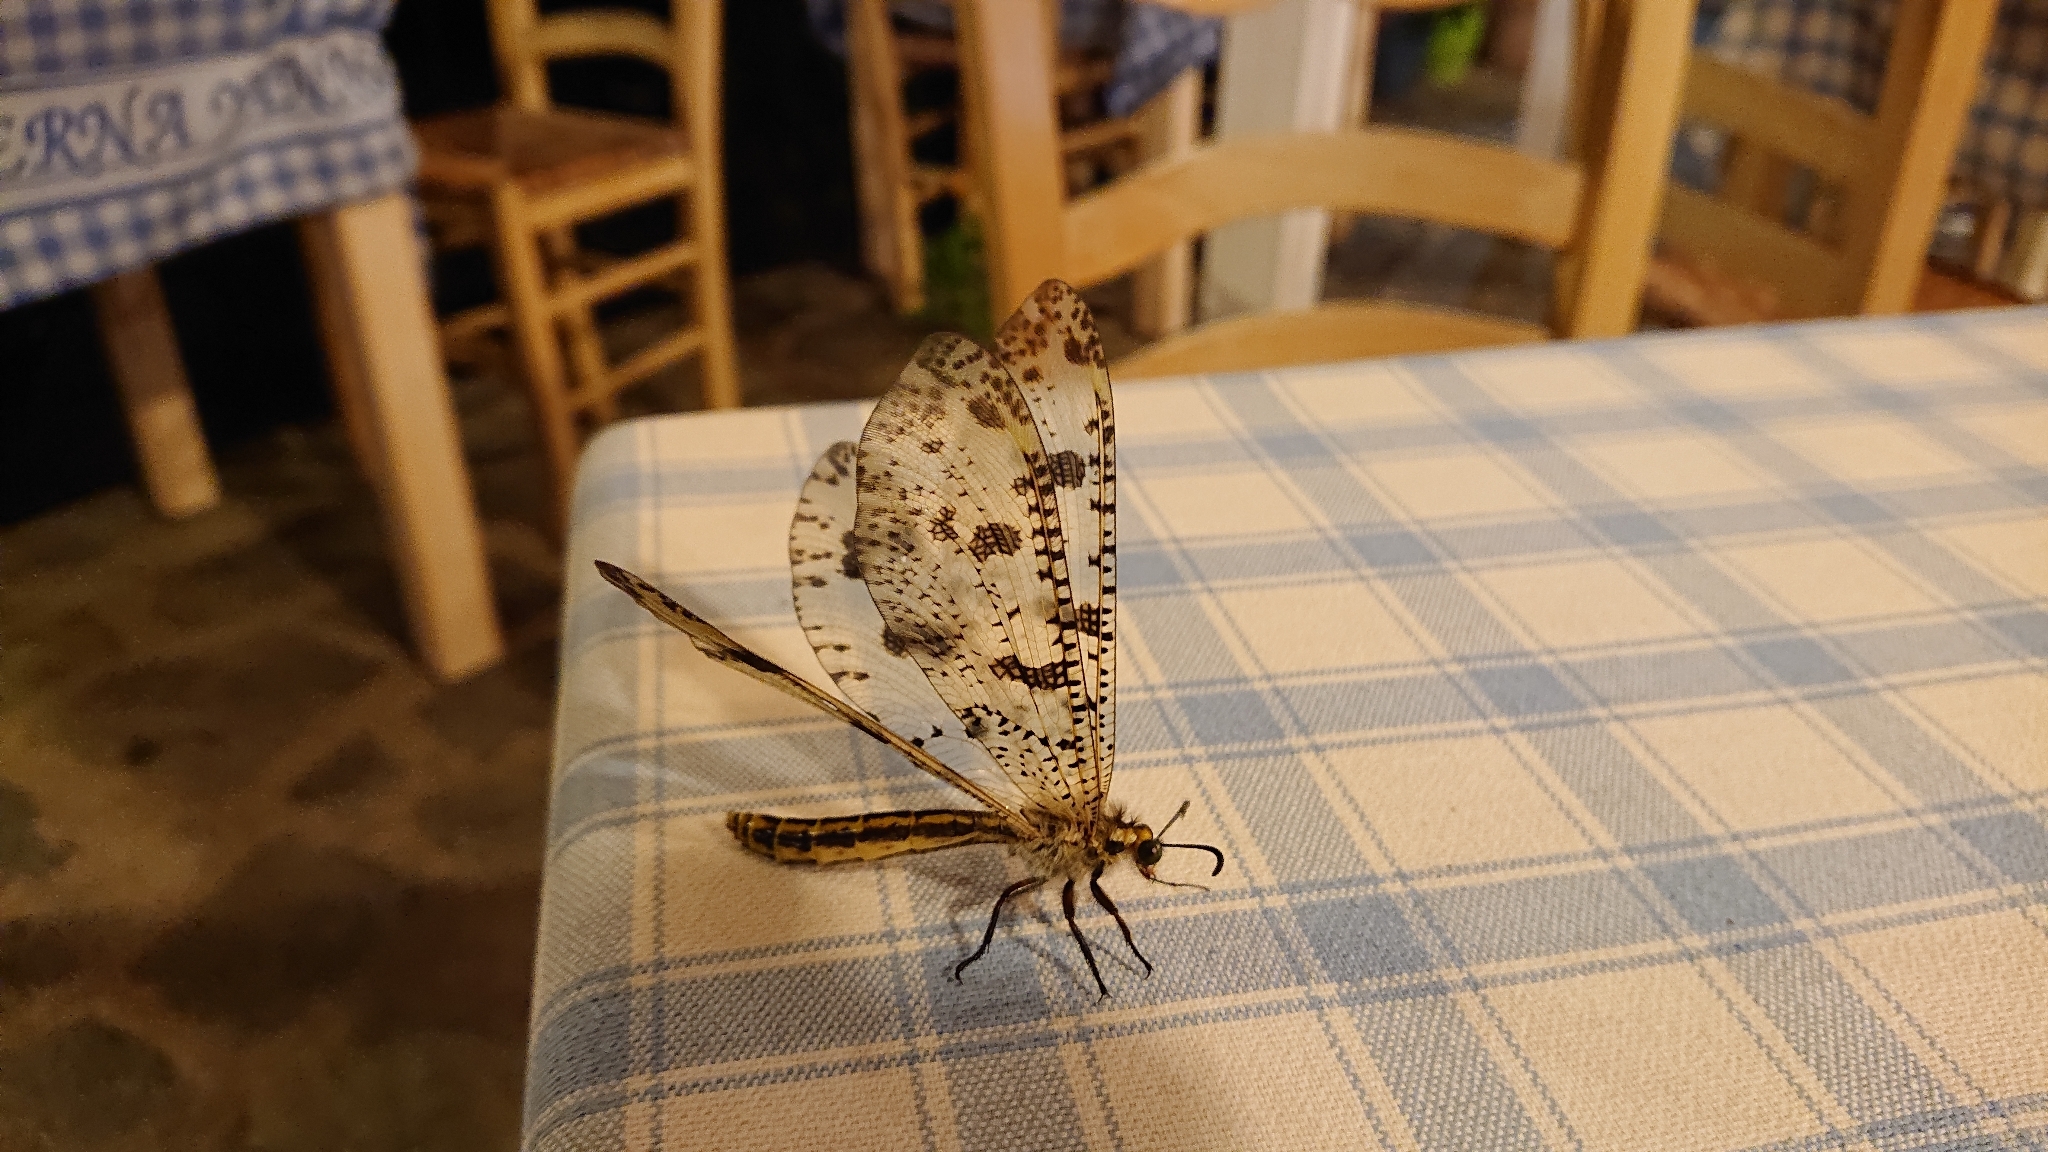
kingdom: Animalia
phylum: Arthropoda
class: Insecta
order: Neuroptera
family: Myrmeleontidae
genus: Palpares
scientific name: Palpares libelluloides
